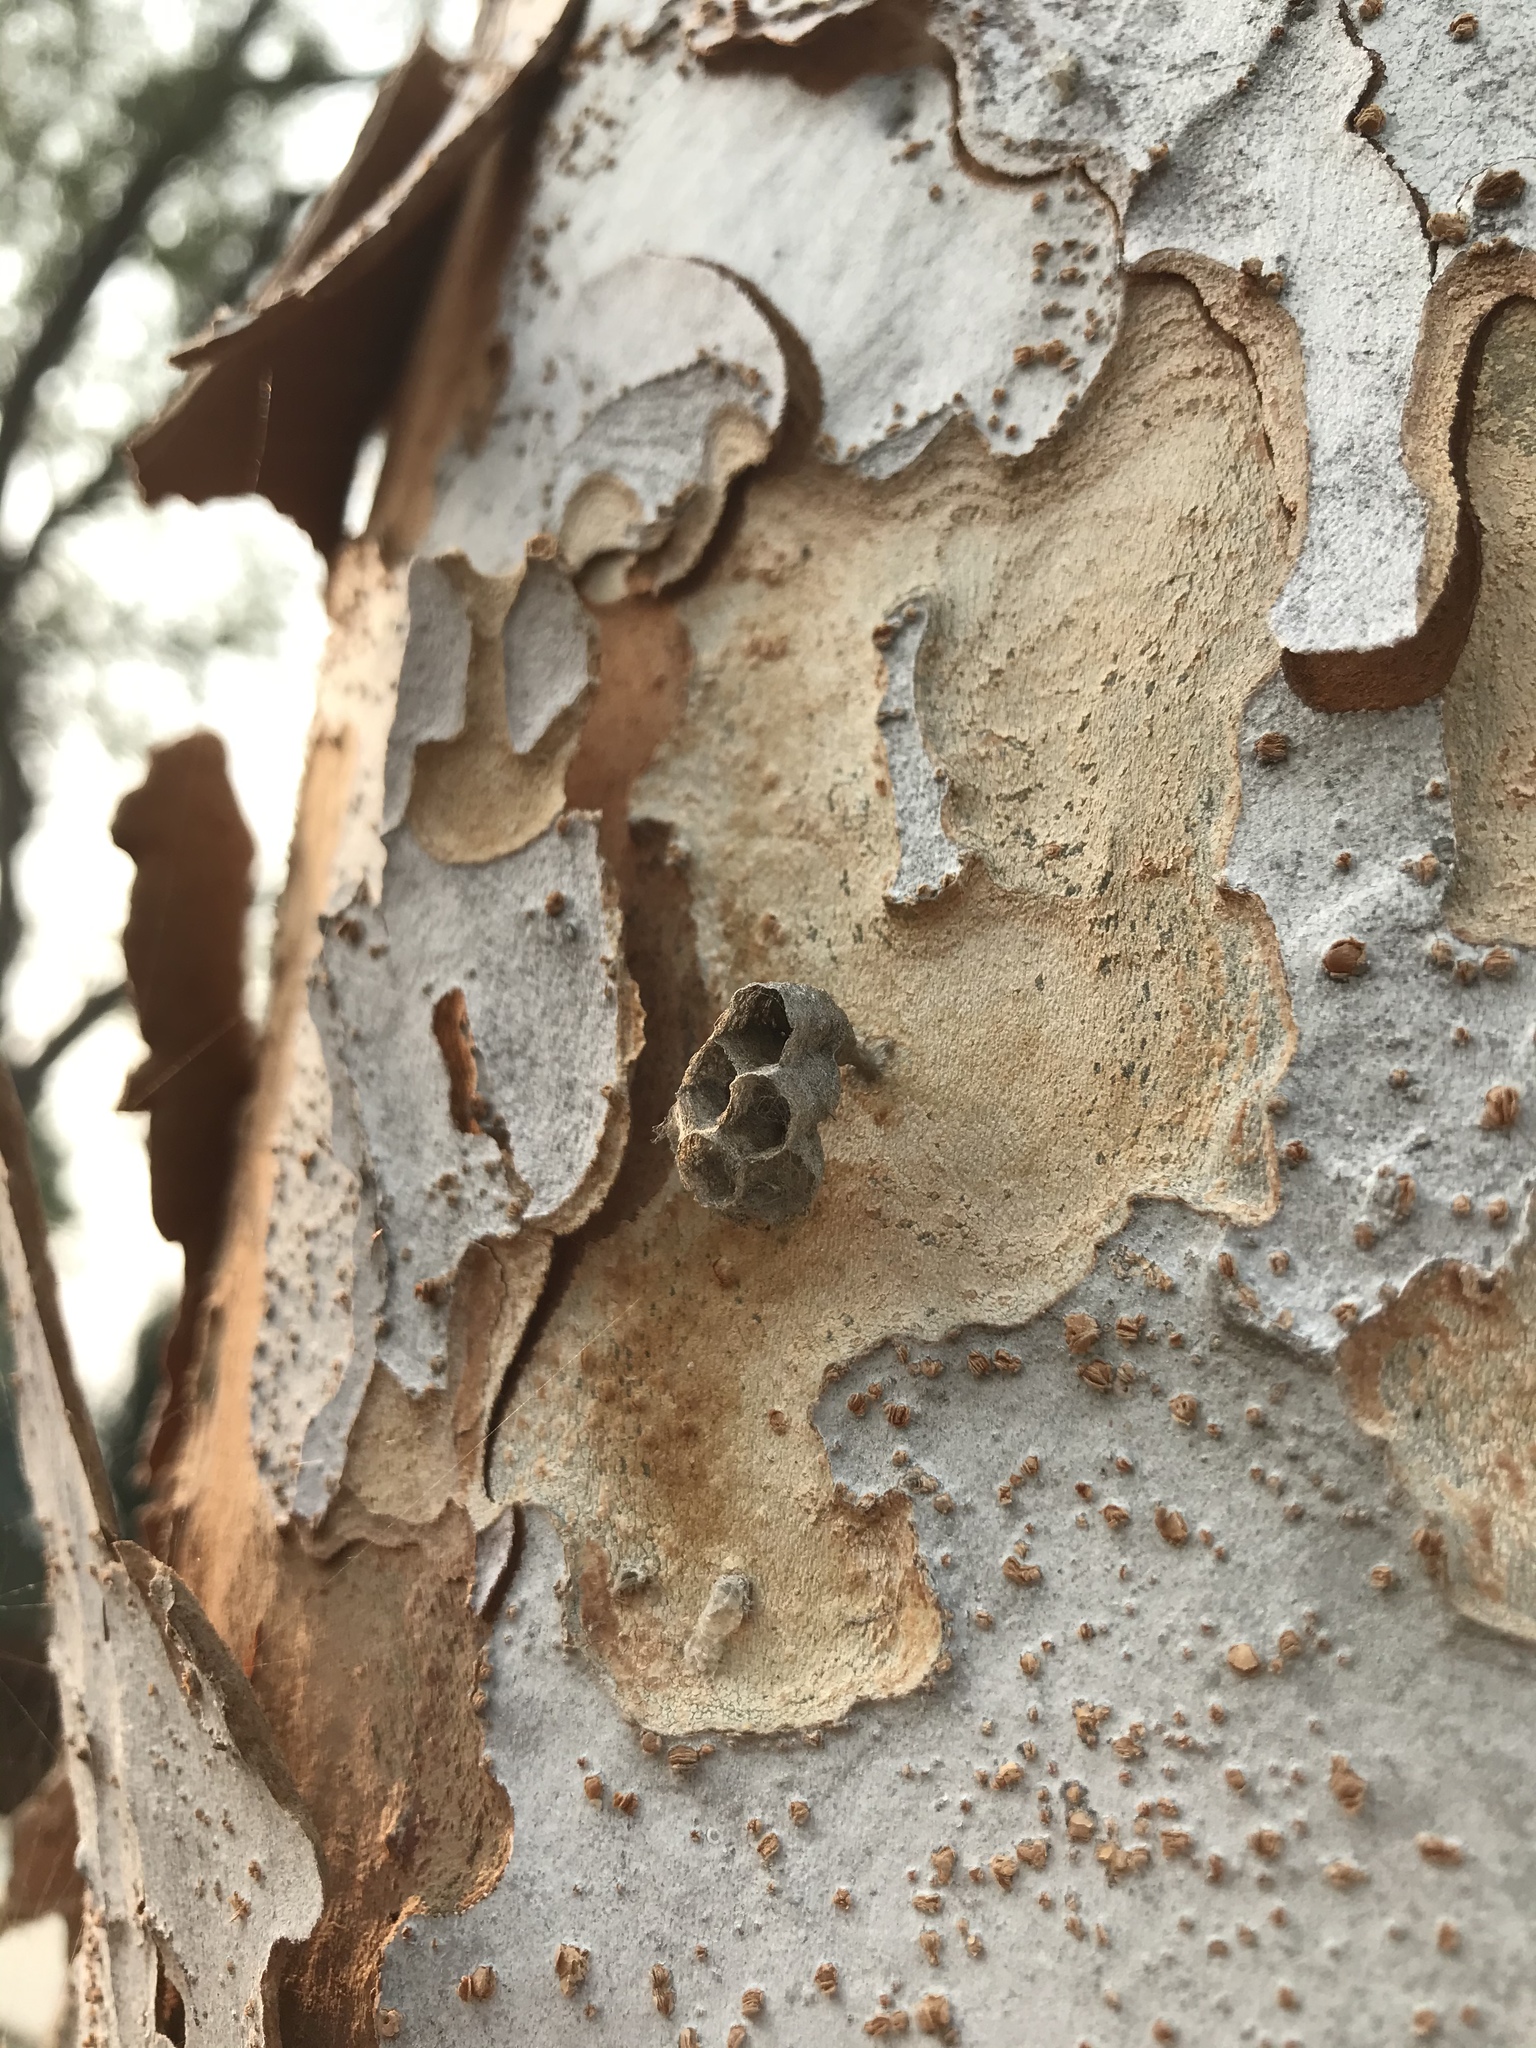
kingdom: Animalia
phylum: Arthropoda
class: Insecta
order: Hymenoptera
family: Vespidae
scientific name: Vespidae
